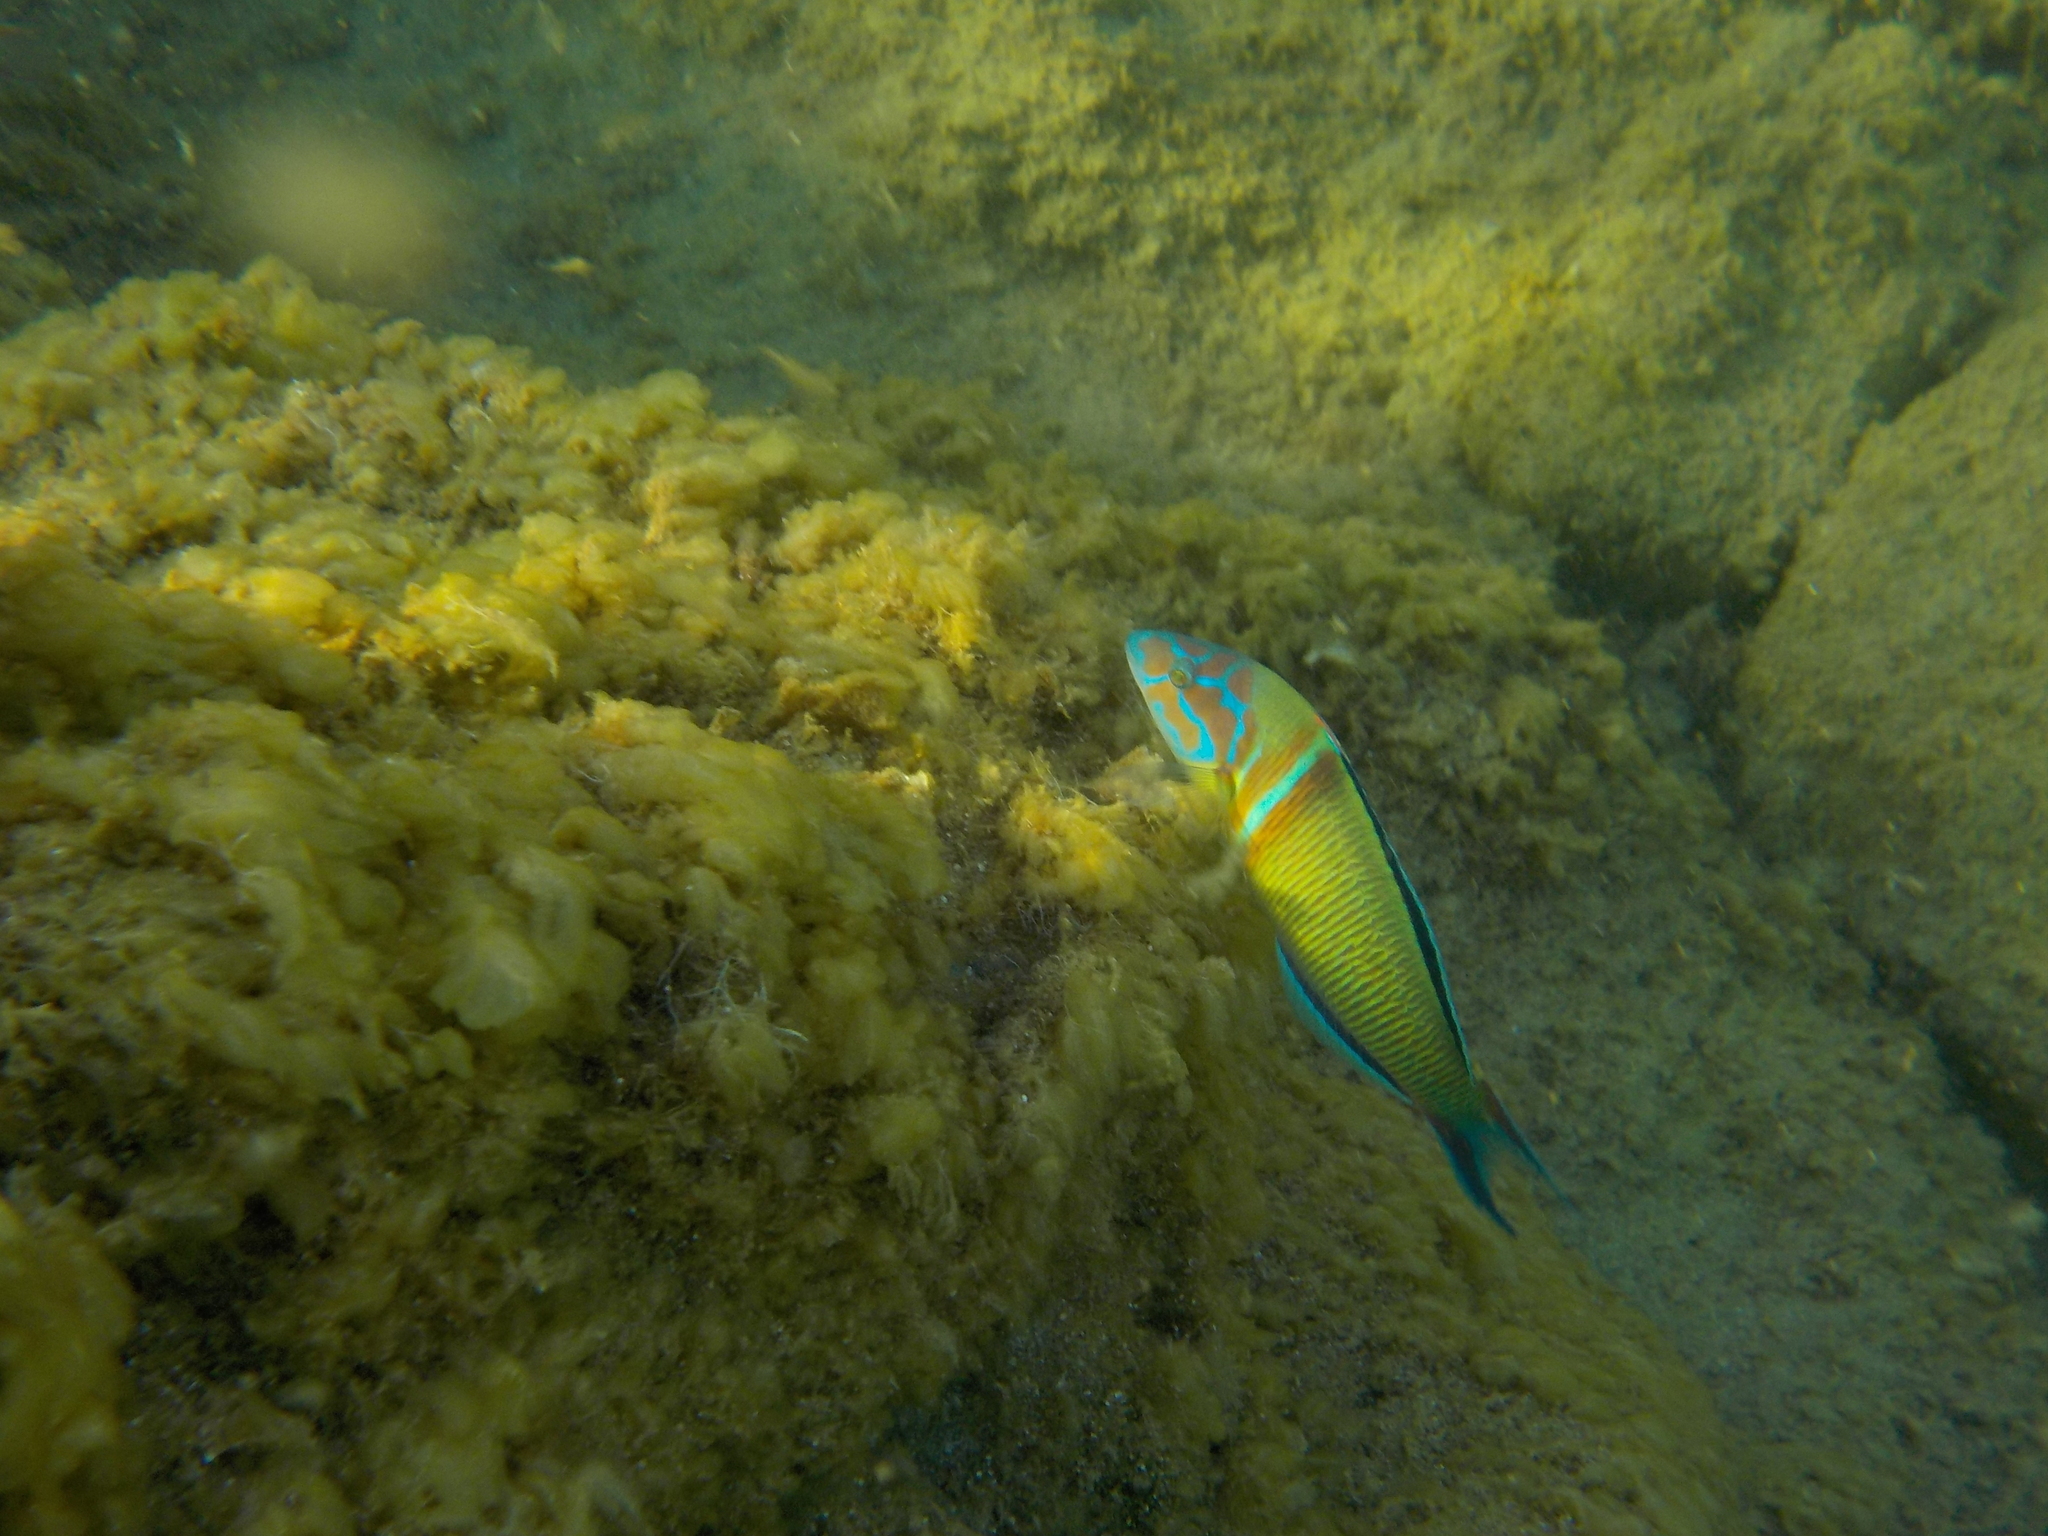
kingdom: Animalia
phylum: Chordata
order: Perciformes
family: Labridae
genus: Thalassoma
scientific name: Thalassoma pavo
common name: Ornate wrasse
